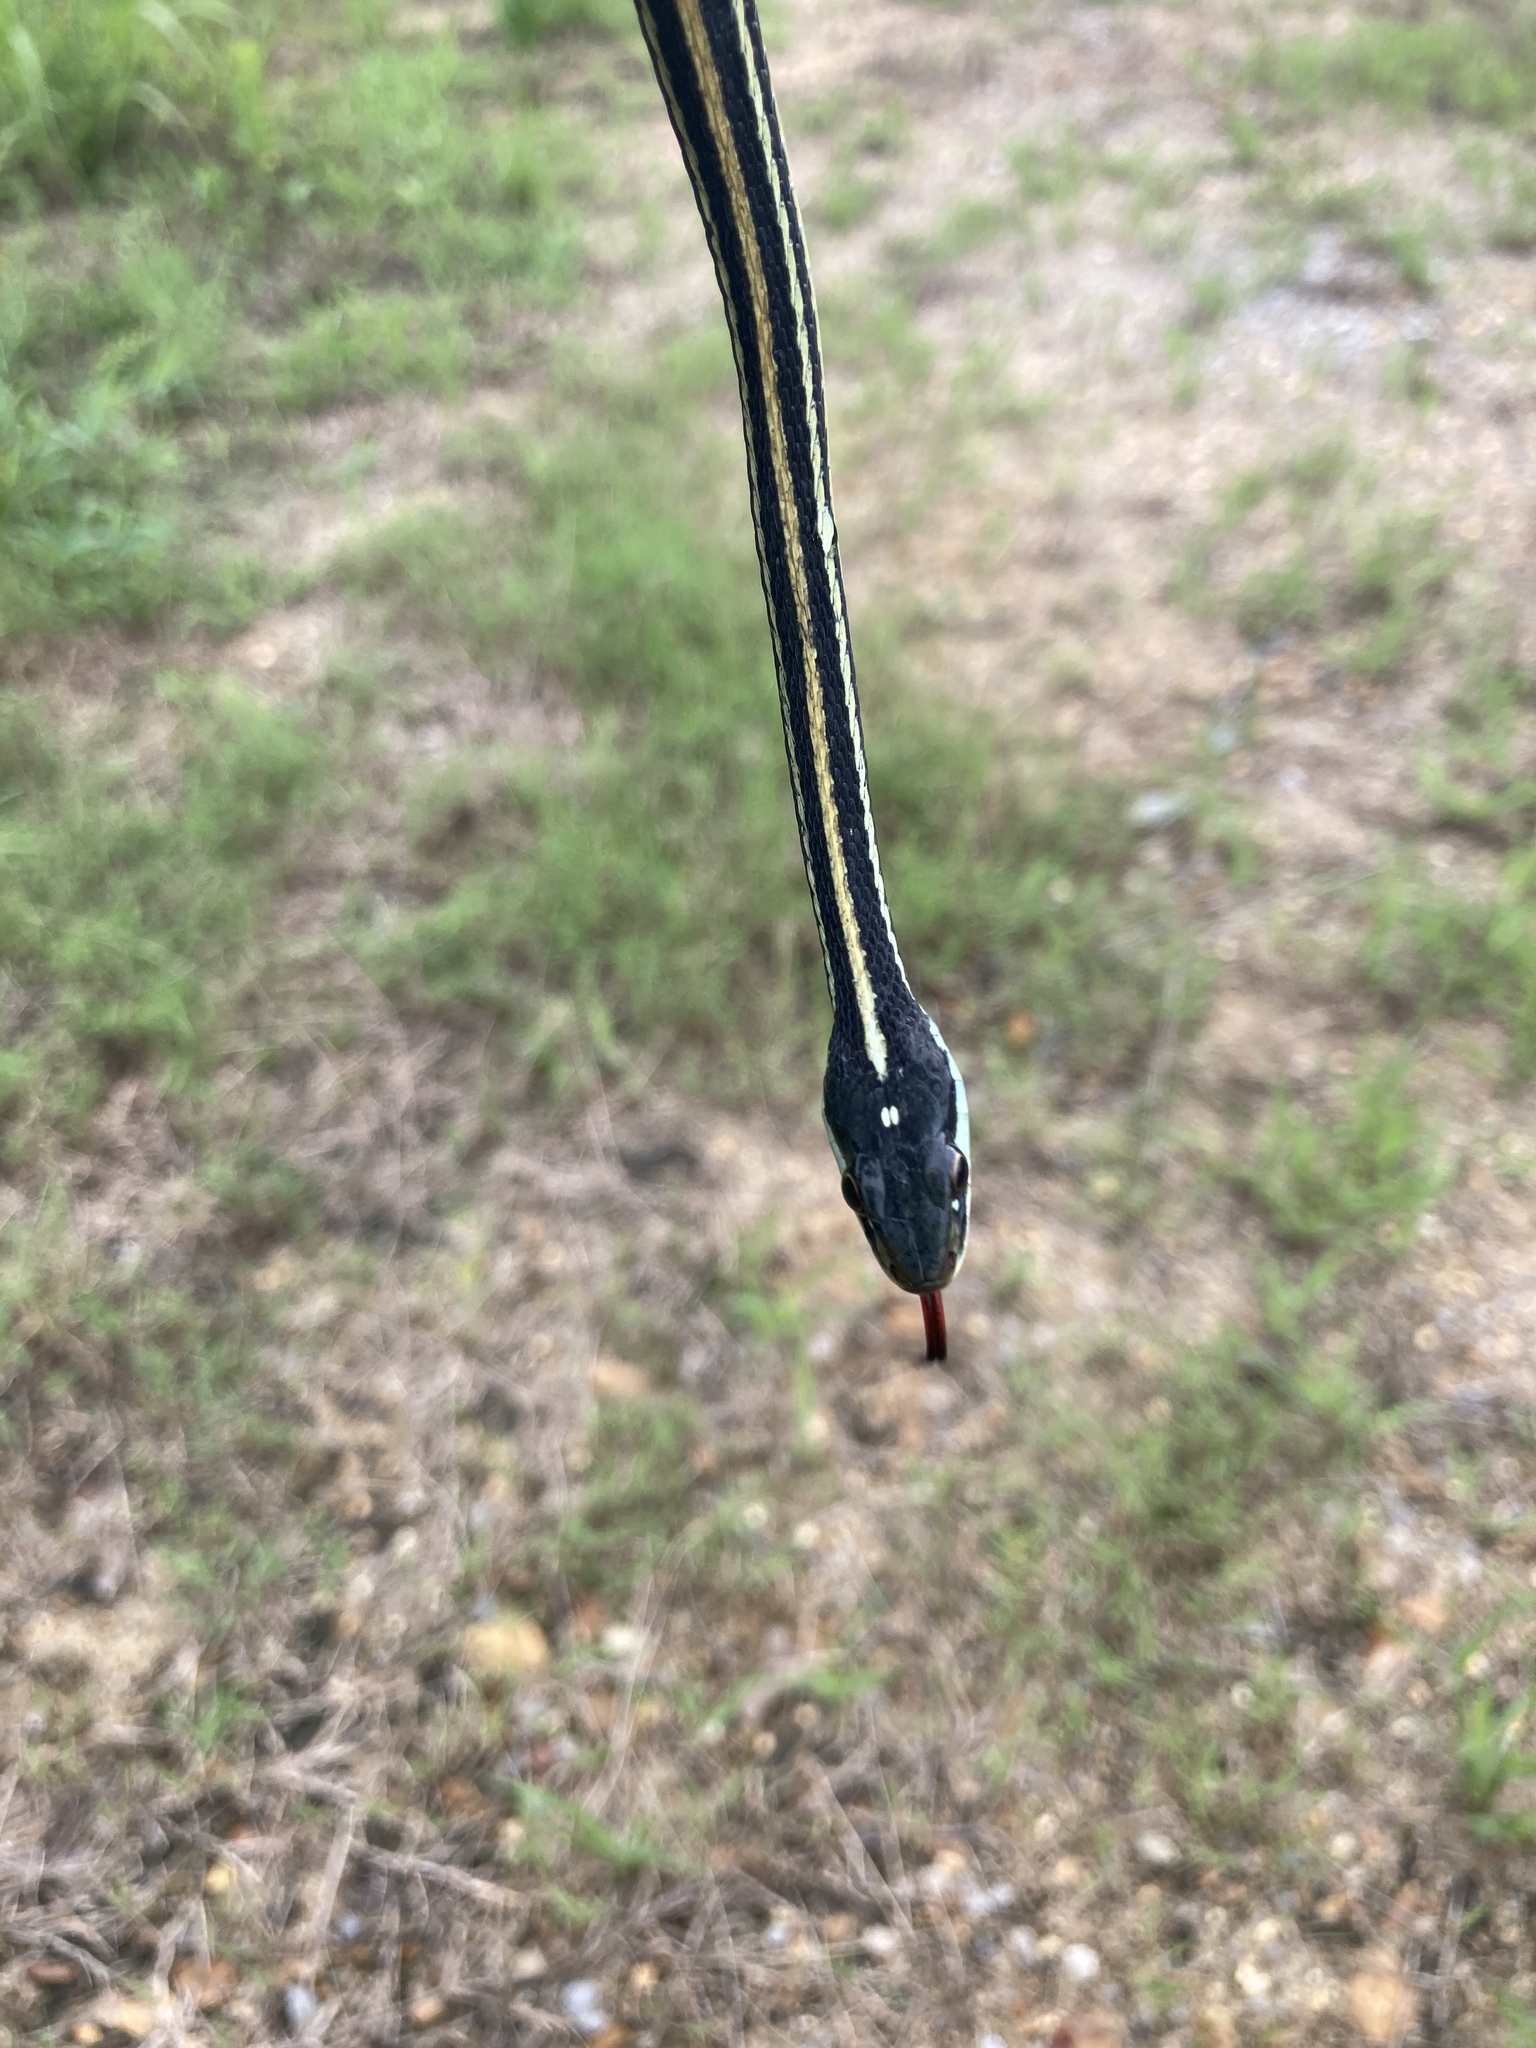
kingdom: Animalia
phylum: Chordata
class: Squamata
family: Colubridae
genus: Thamnophis
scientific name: Thamnophis proximus
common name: Western ribbon snake
